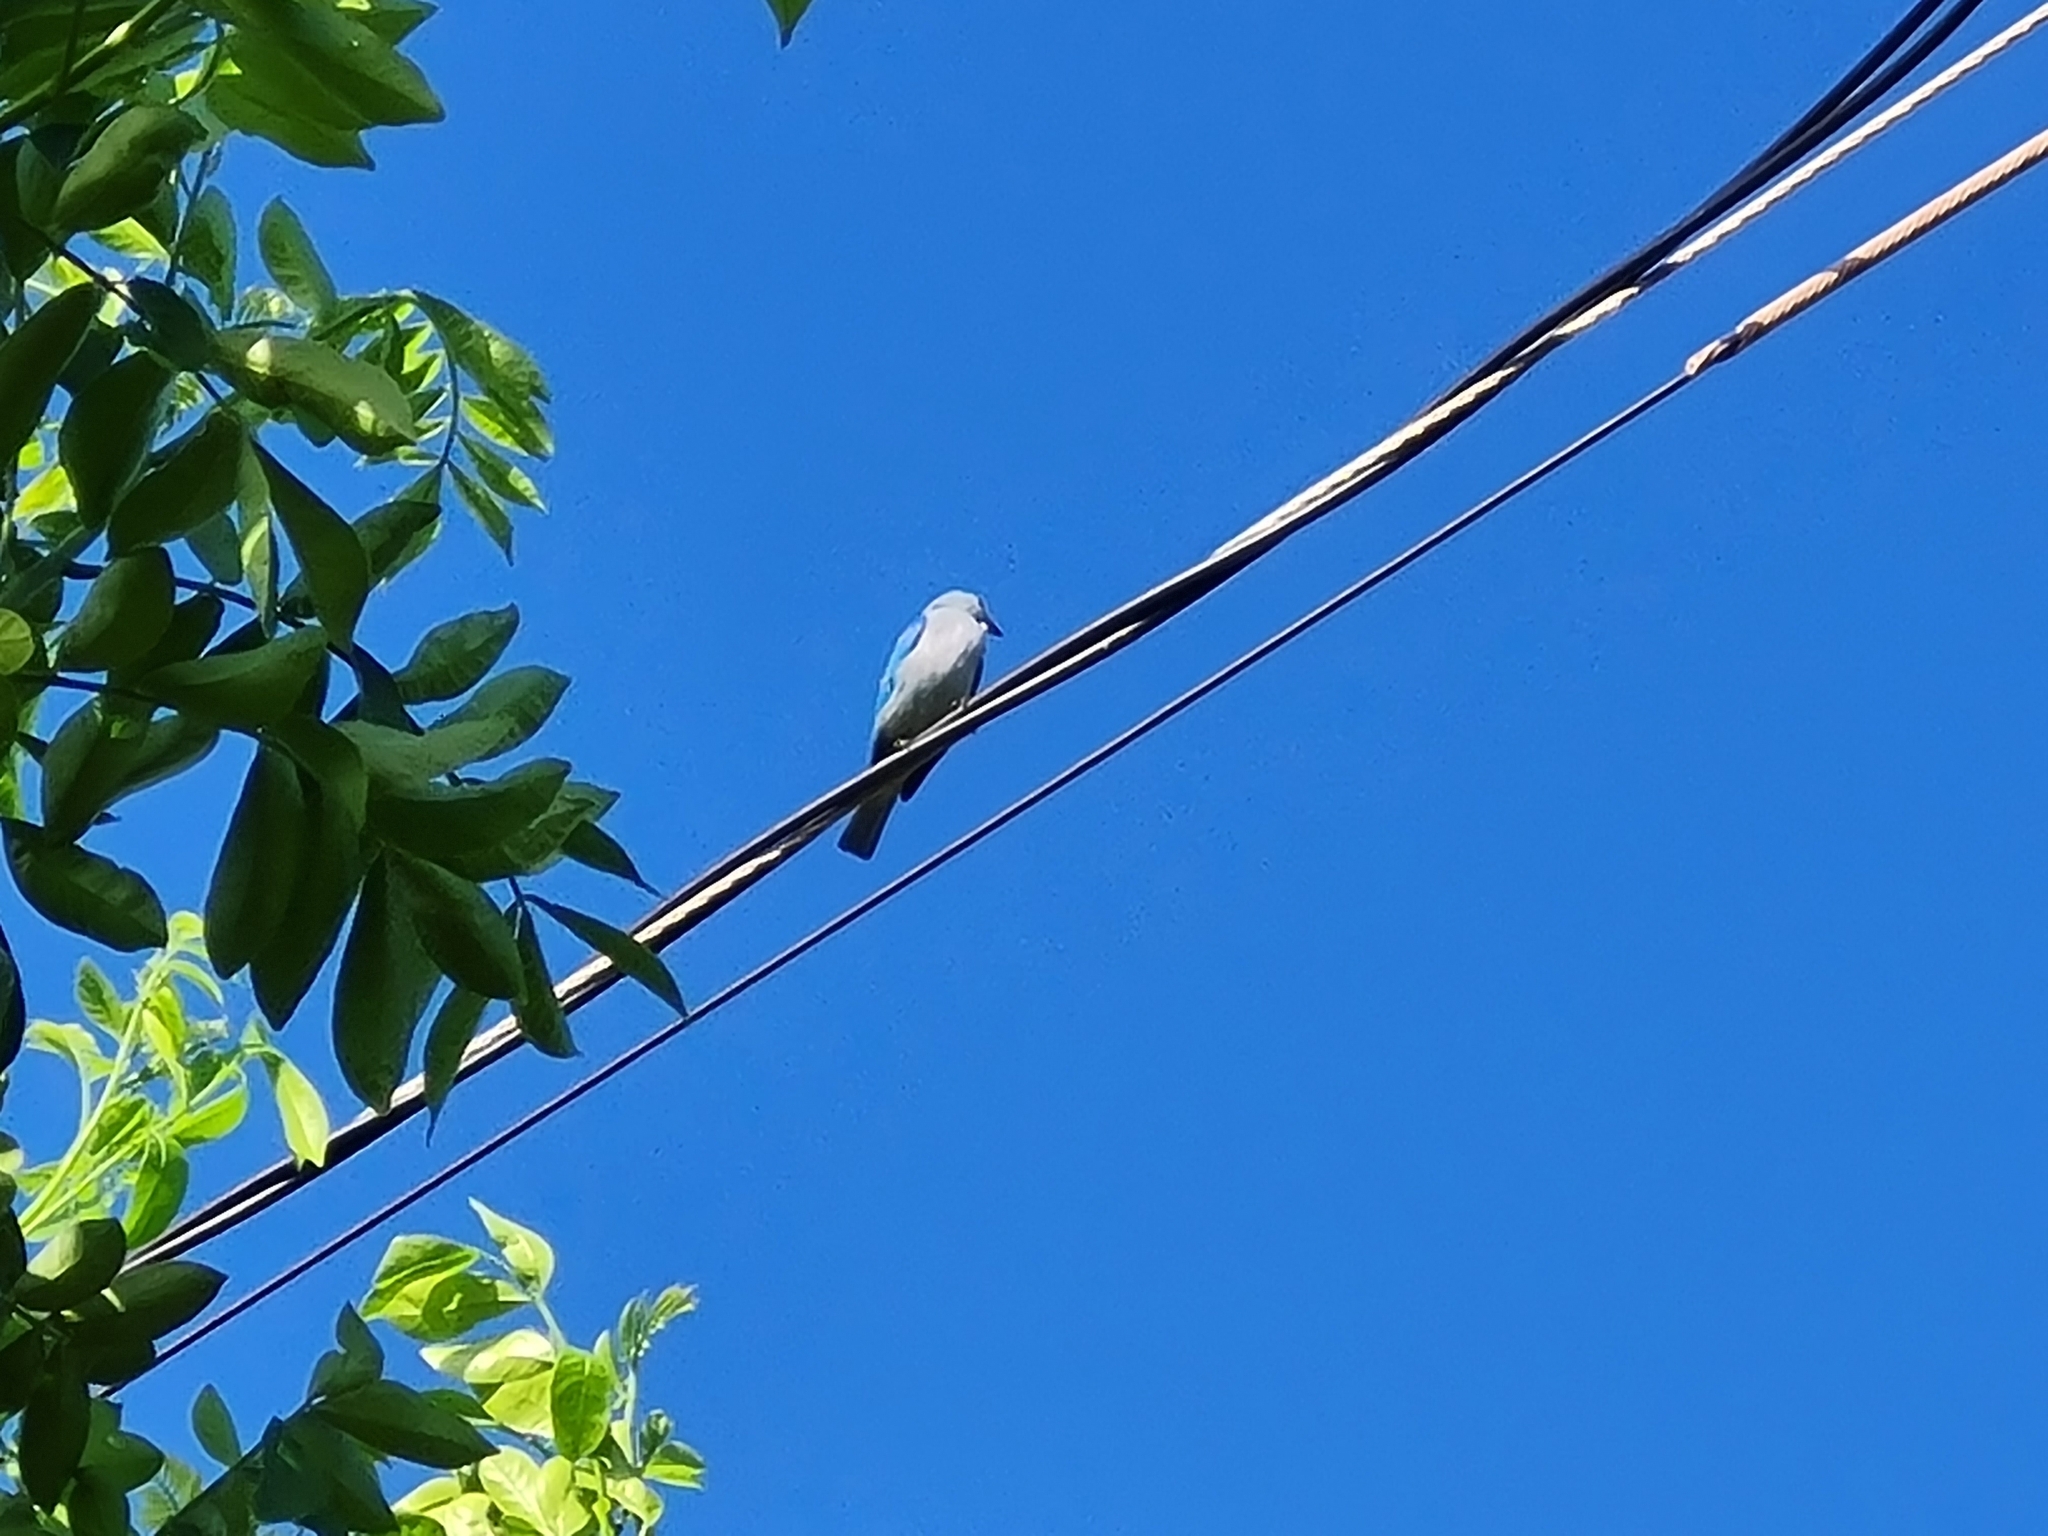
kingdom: Animalia
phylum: Chordata
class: Aves
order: Passeriformes
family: Thraupidae
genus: Thraupis
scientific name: Thraupis episcopus
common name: Blue-grey tanager
